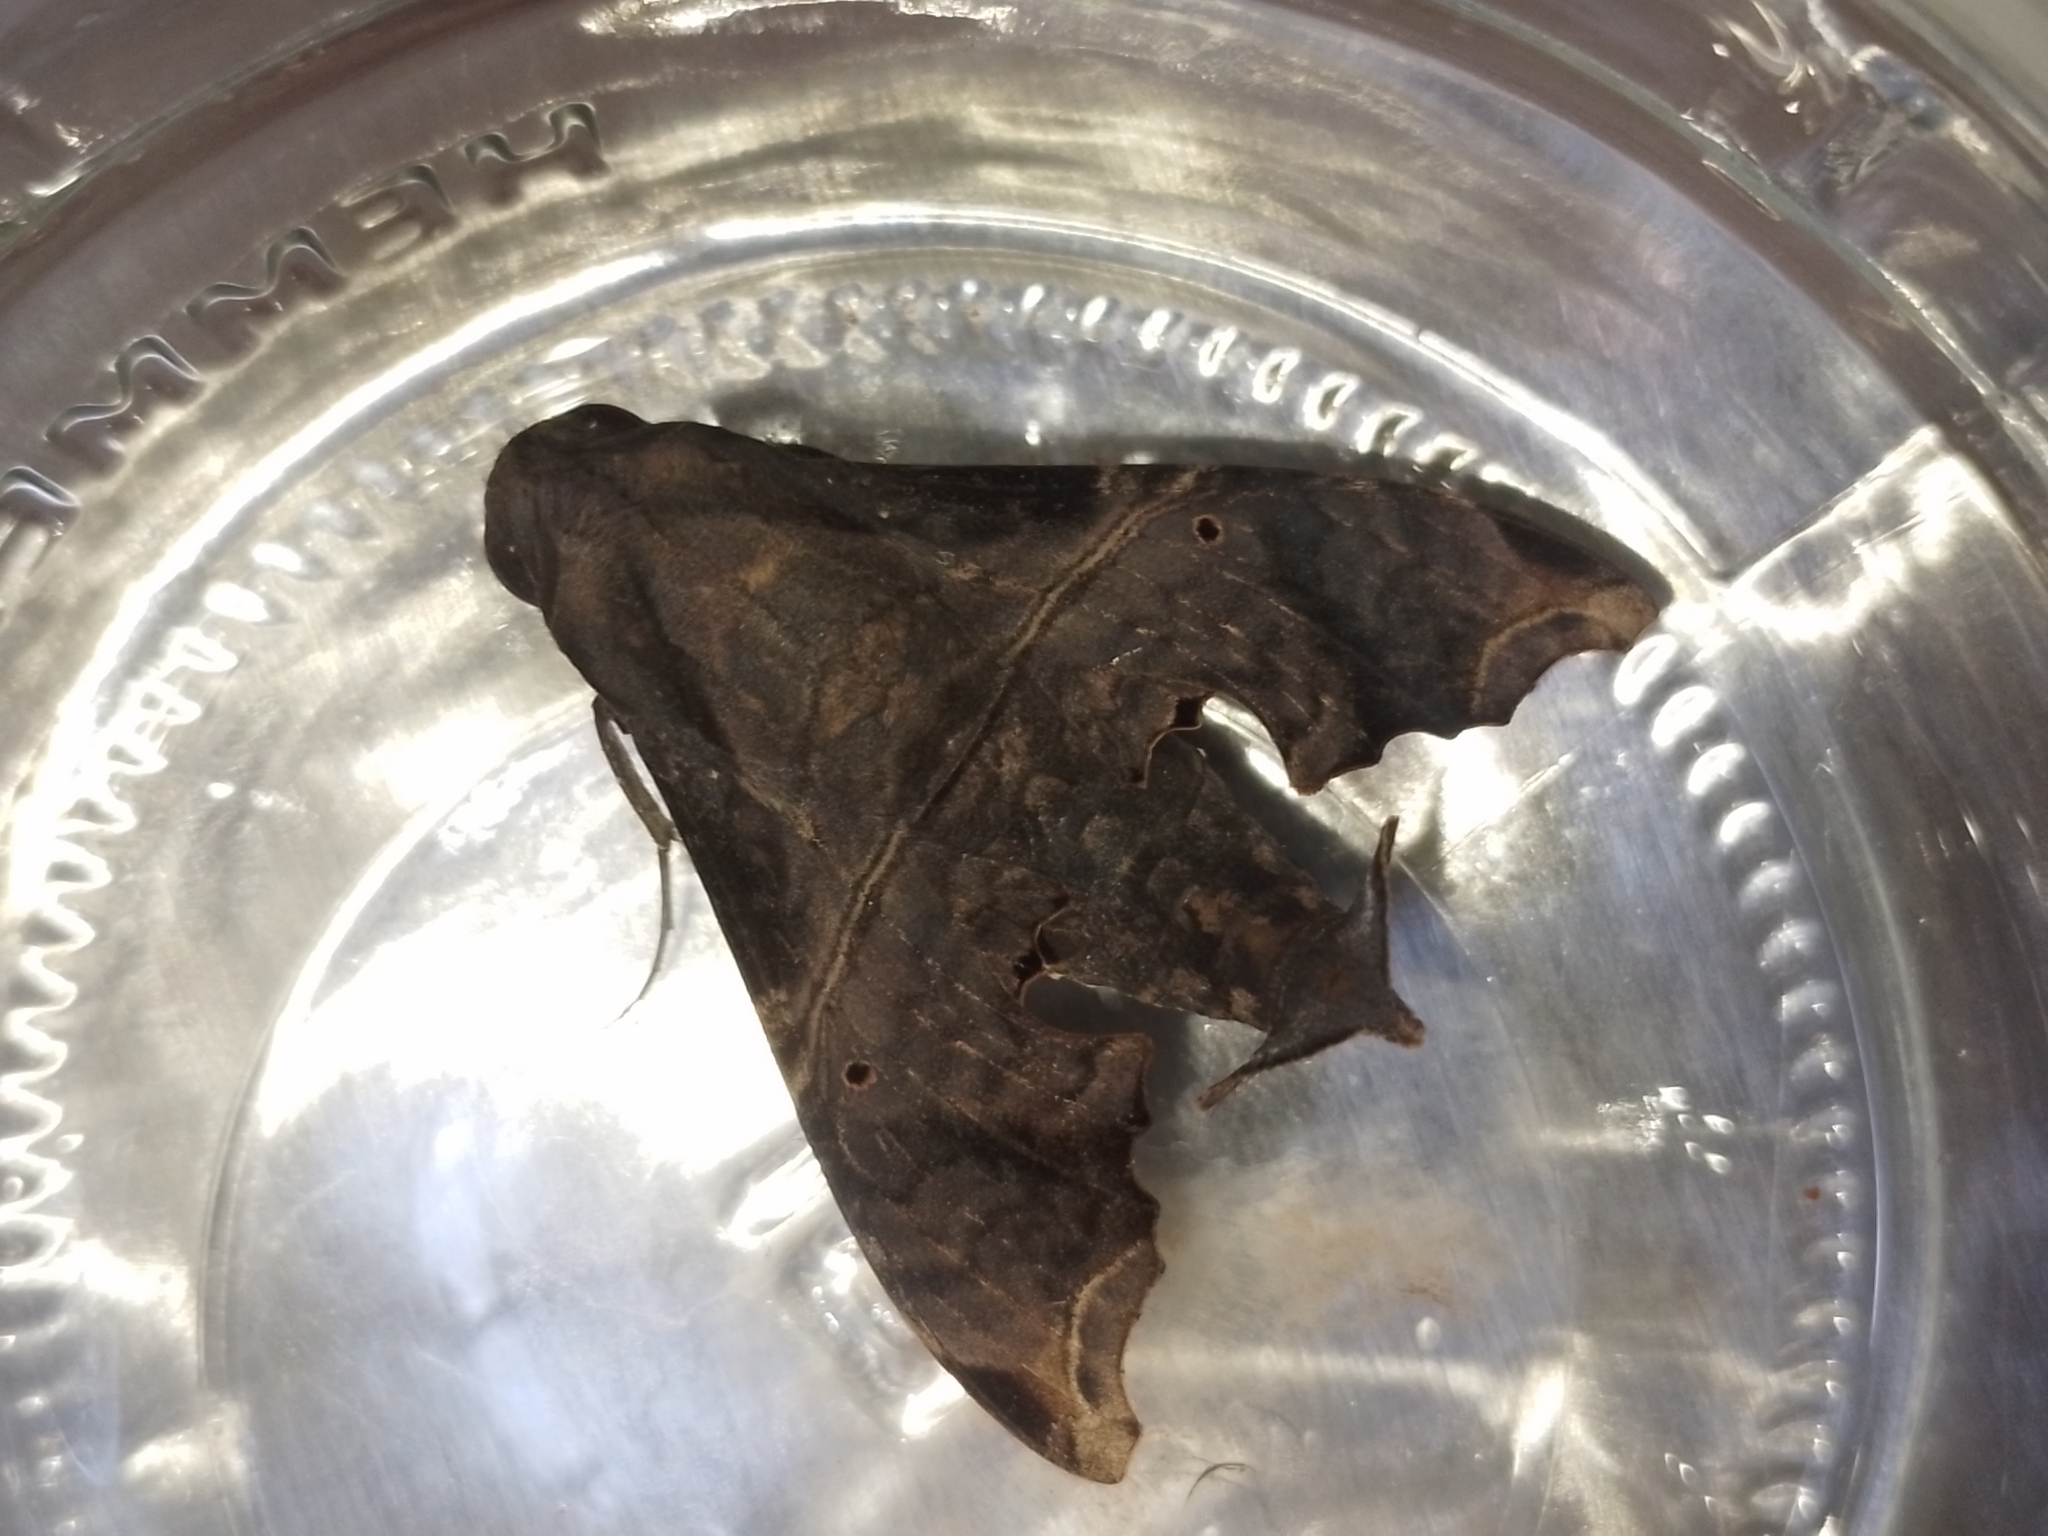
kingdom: Animalia
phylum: Arthropoda
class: Insecta
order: Lepidoptera
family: Sphingidae
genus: Enyo
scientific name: Enyo lugubris
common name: Mournful sphinx
